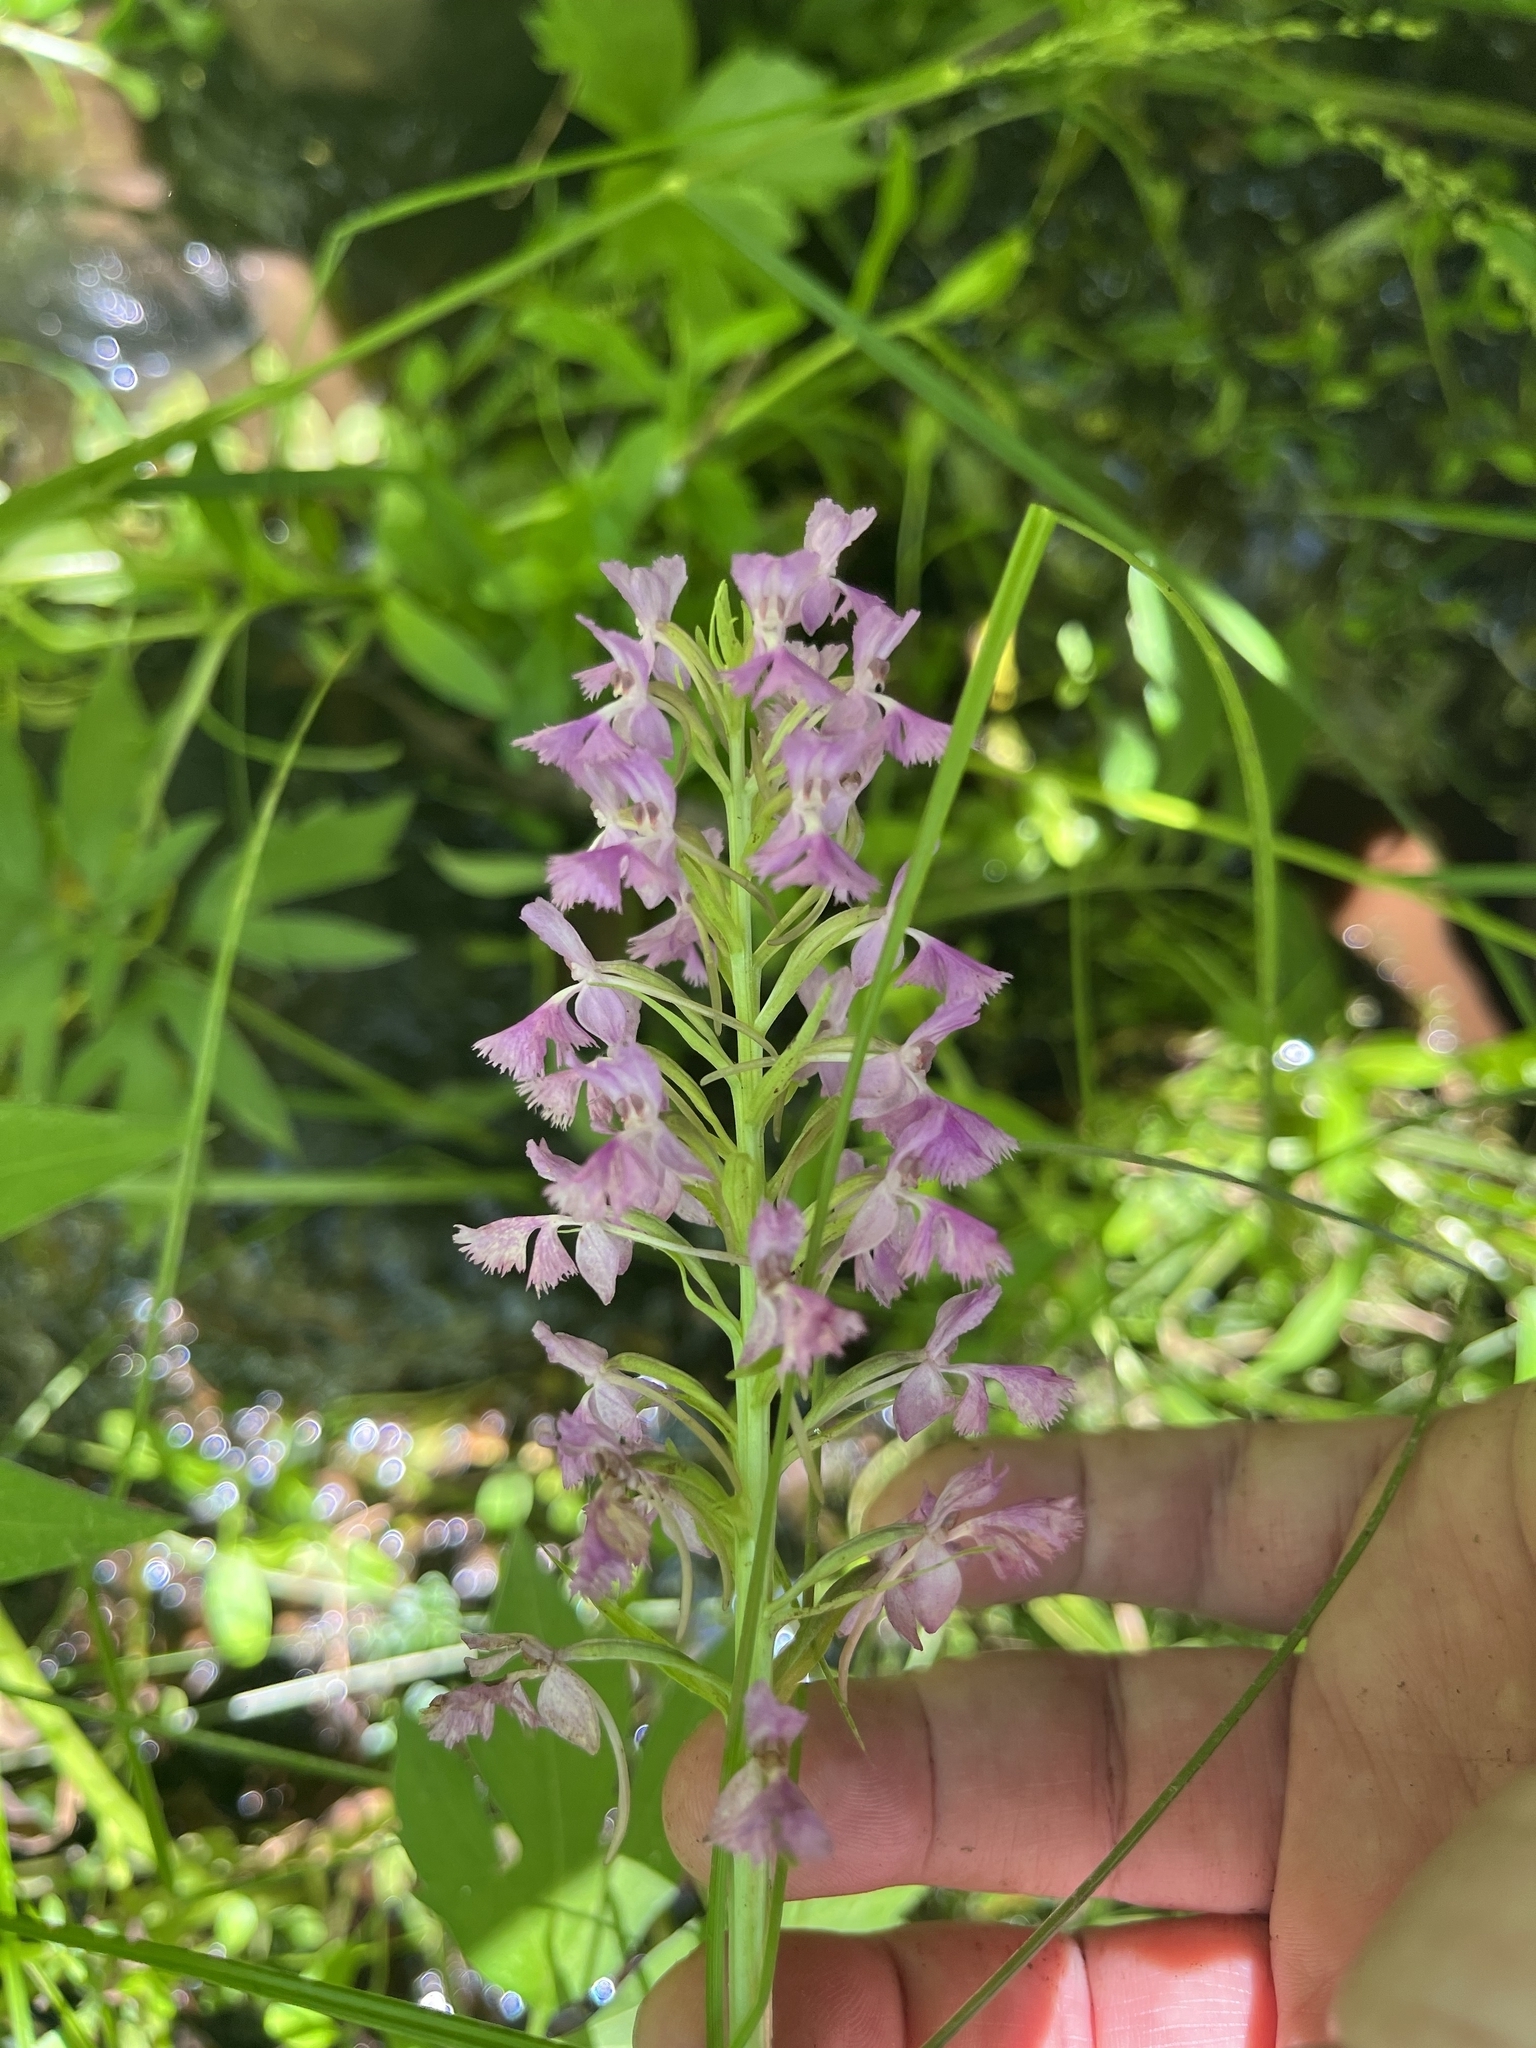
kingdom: Plantae
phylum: Tracheophyta
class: Liliopsida
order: Asparagales
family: Orchidaceae
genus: Platanthera
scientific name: Platanthera psycodes
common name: Lesser purple fringed orchid
